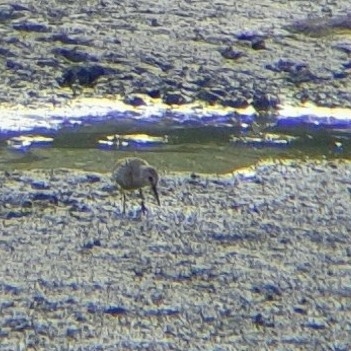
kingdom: Animalia
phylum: Chordata
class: Aves
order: Charadriiformes
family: Scolopacidae
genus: Calidris
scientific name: Calidris alpina
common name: Dunlin
